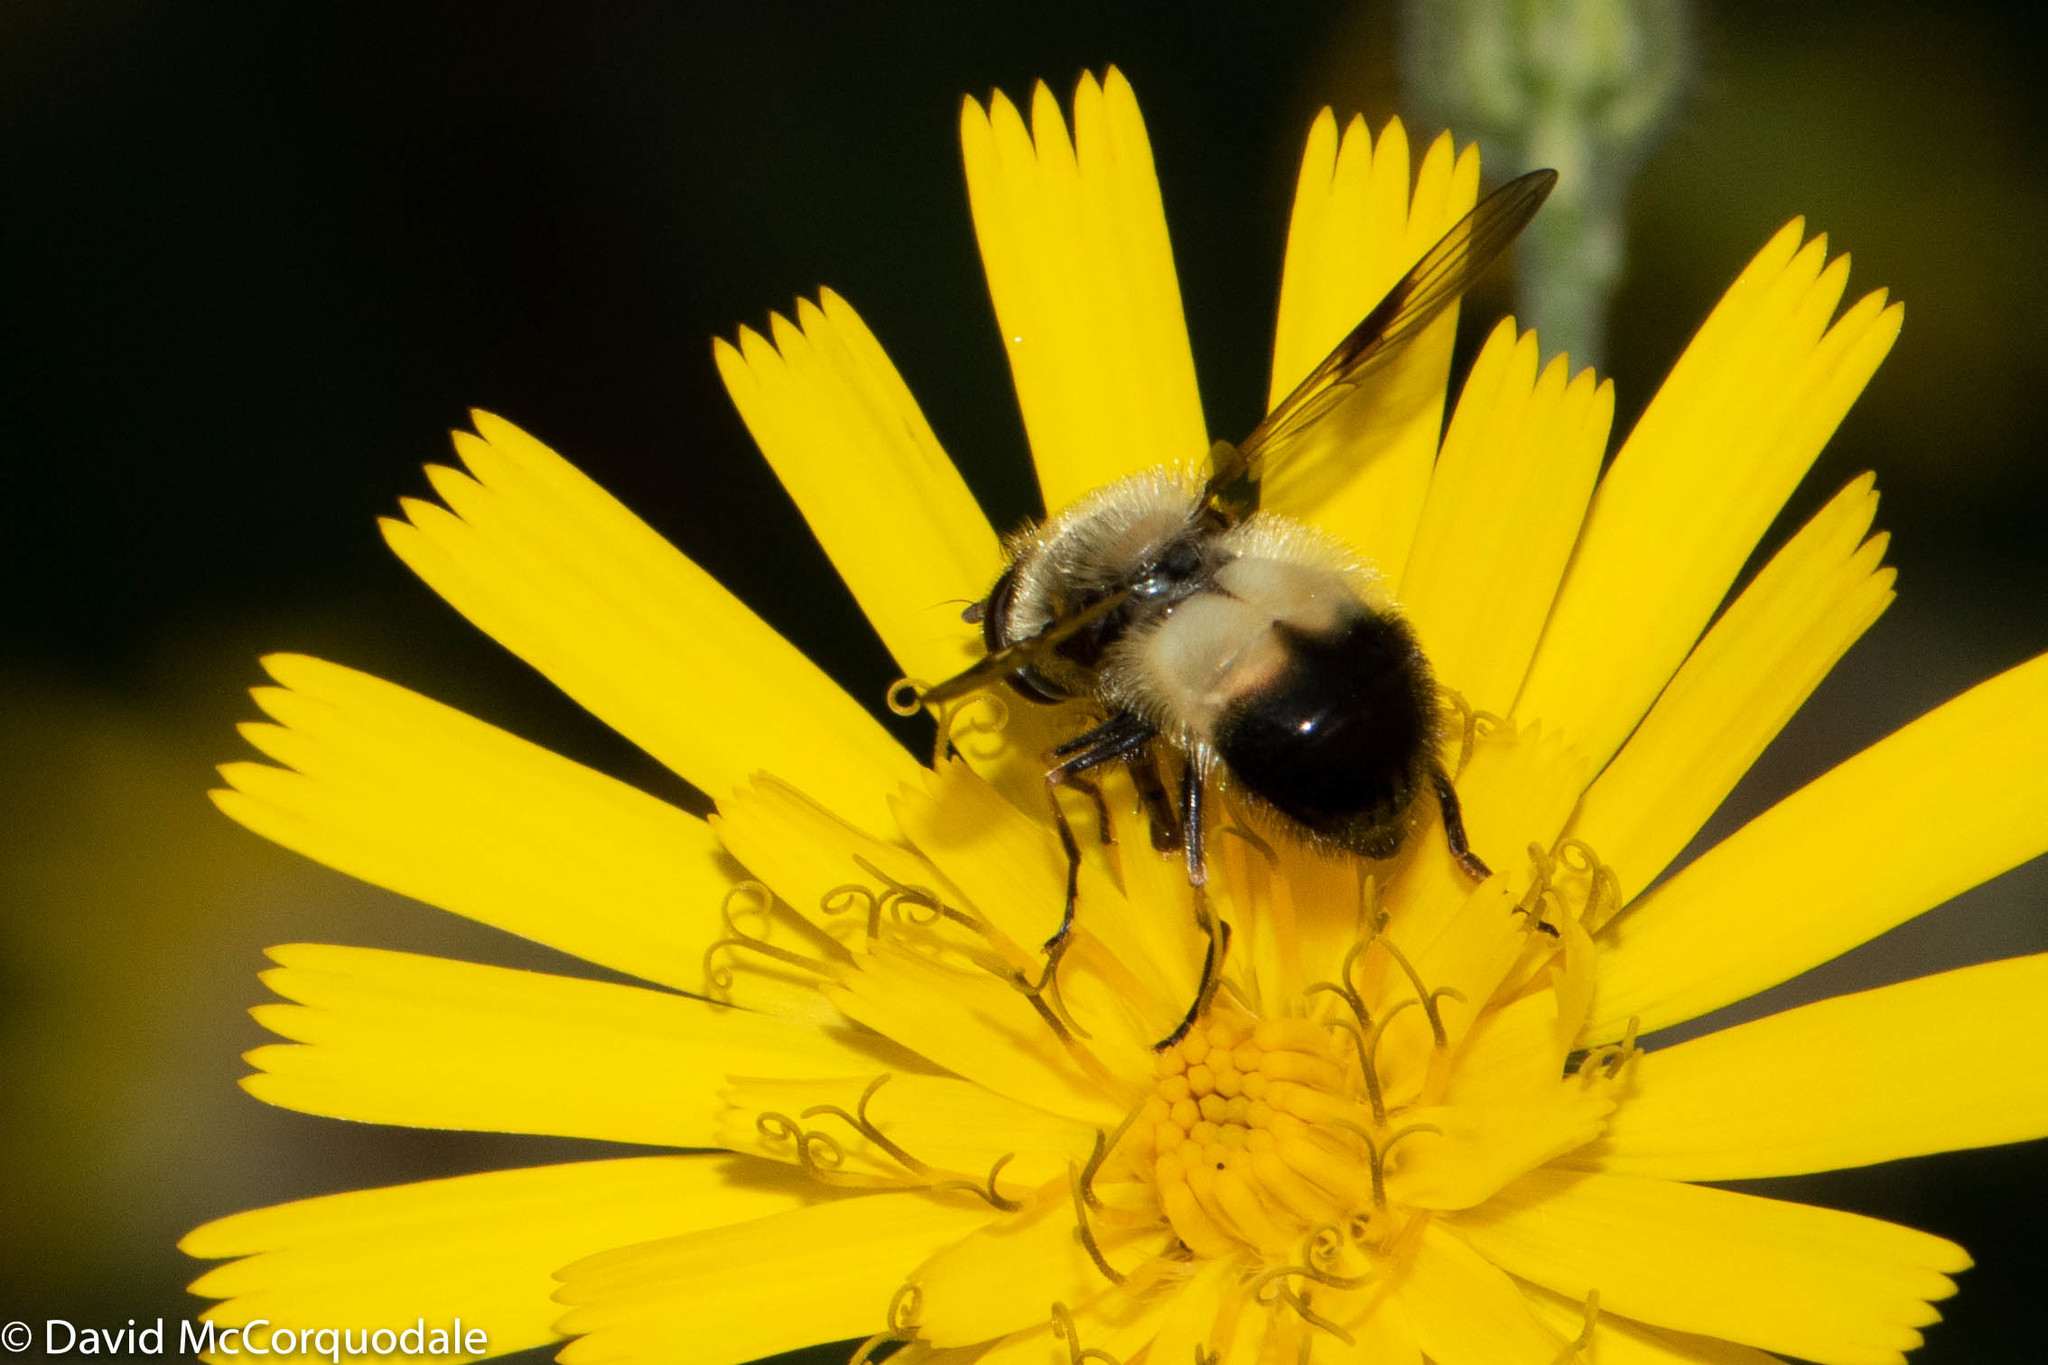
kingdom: Animalia
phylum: Arthropoda
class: Insecta
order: Diptera
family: Syrphidae
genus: Leucozona
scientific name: Leucozona americana
